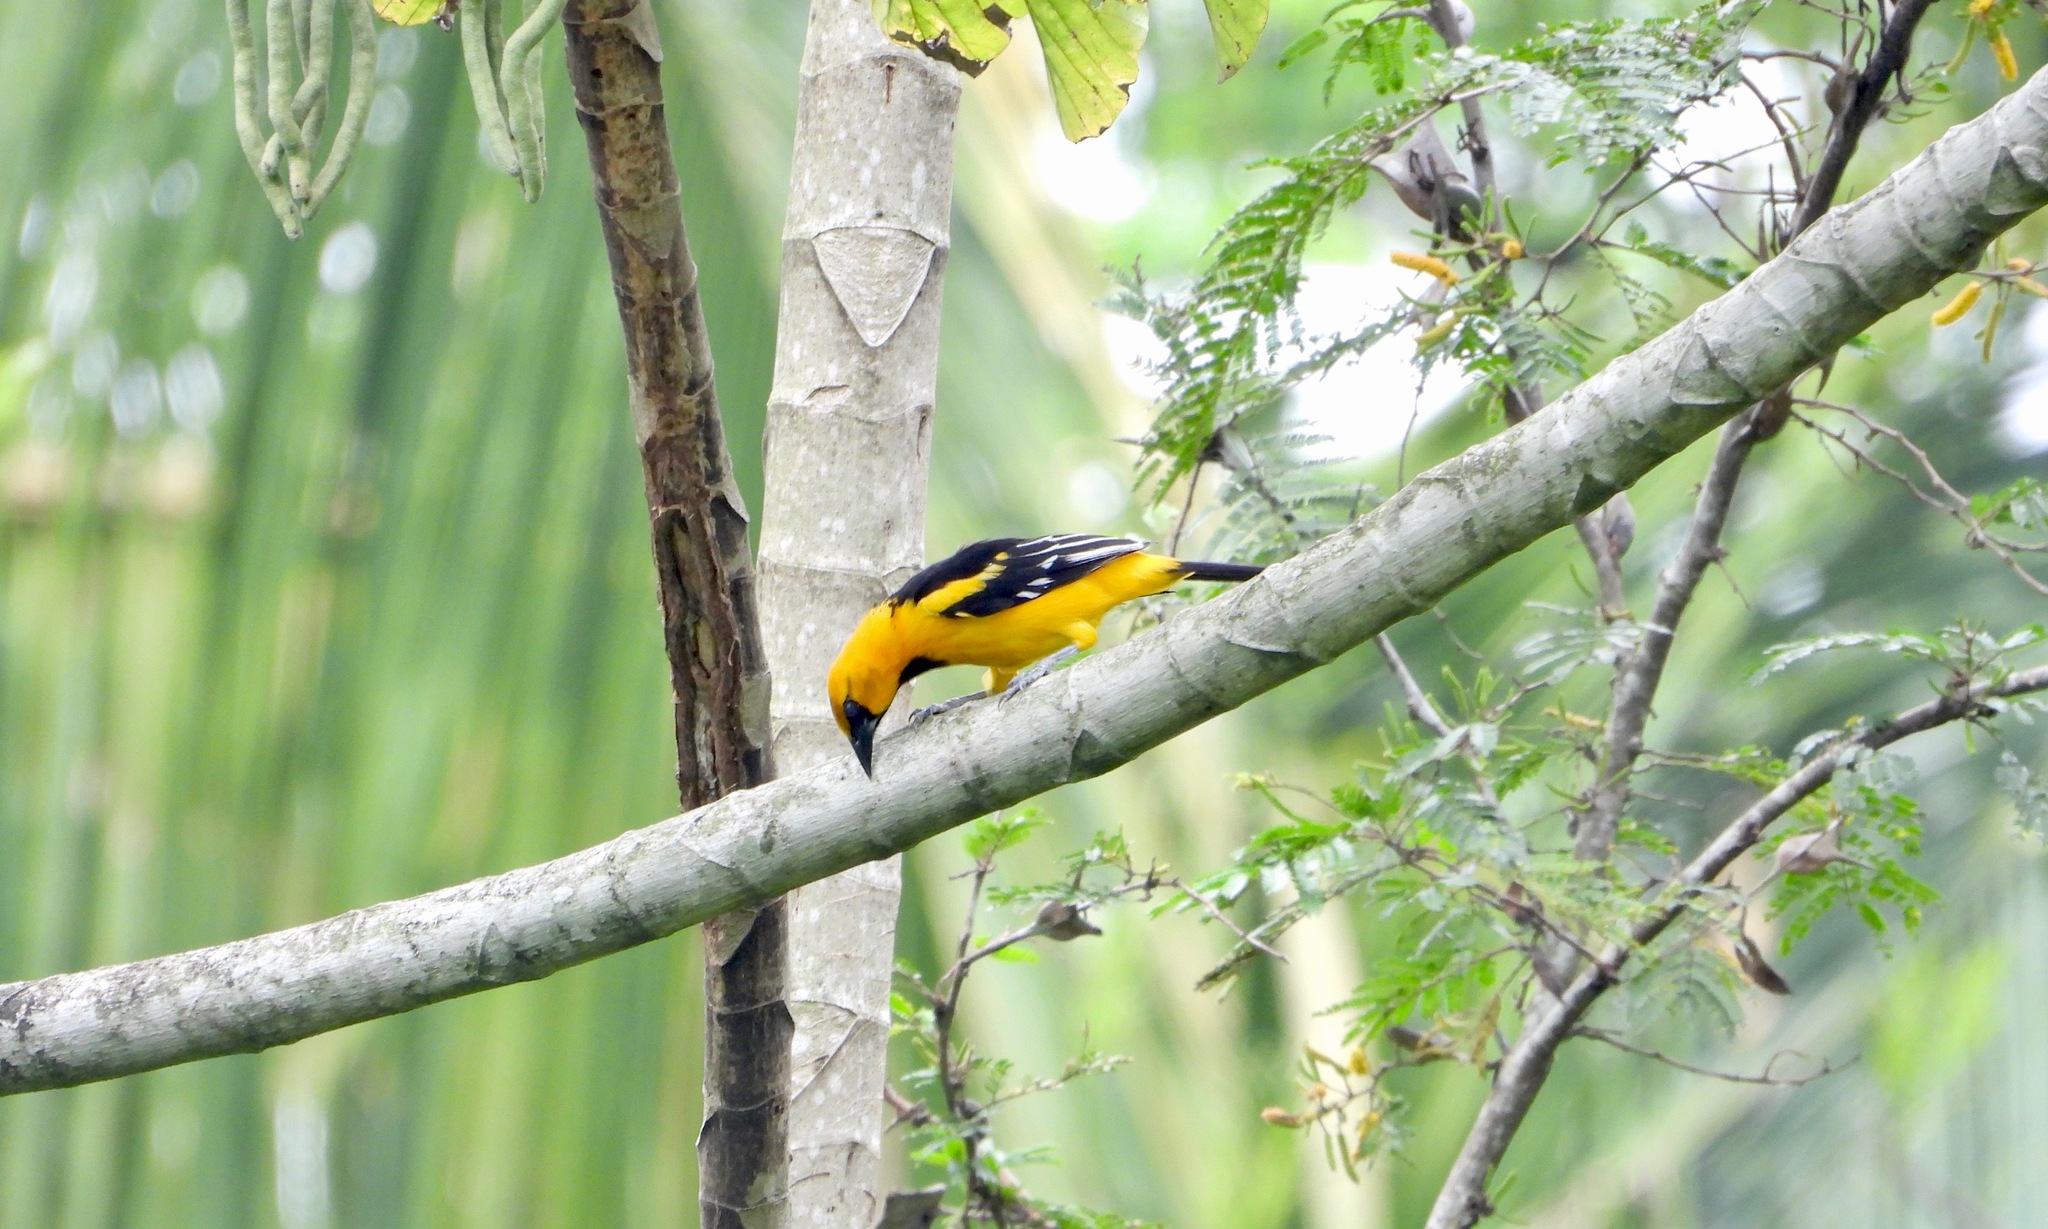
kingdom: Animalia
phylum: Chordata
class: Aves
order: Passeriformes
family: Icteridae
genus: Icterus
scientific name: Icterus gularis
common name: Altamira oriole
